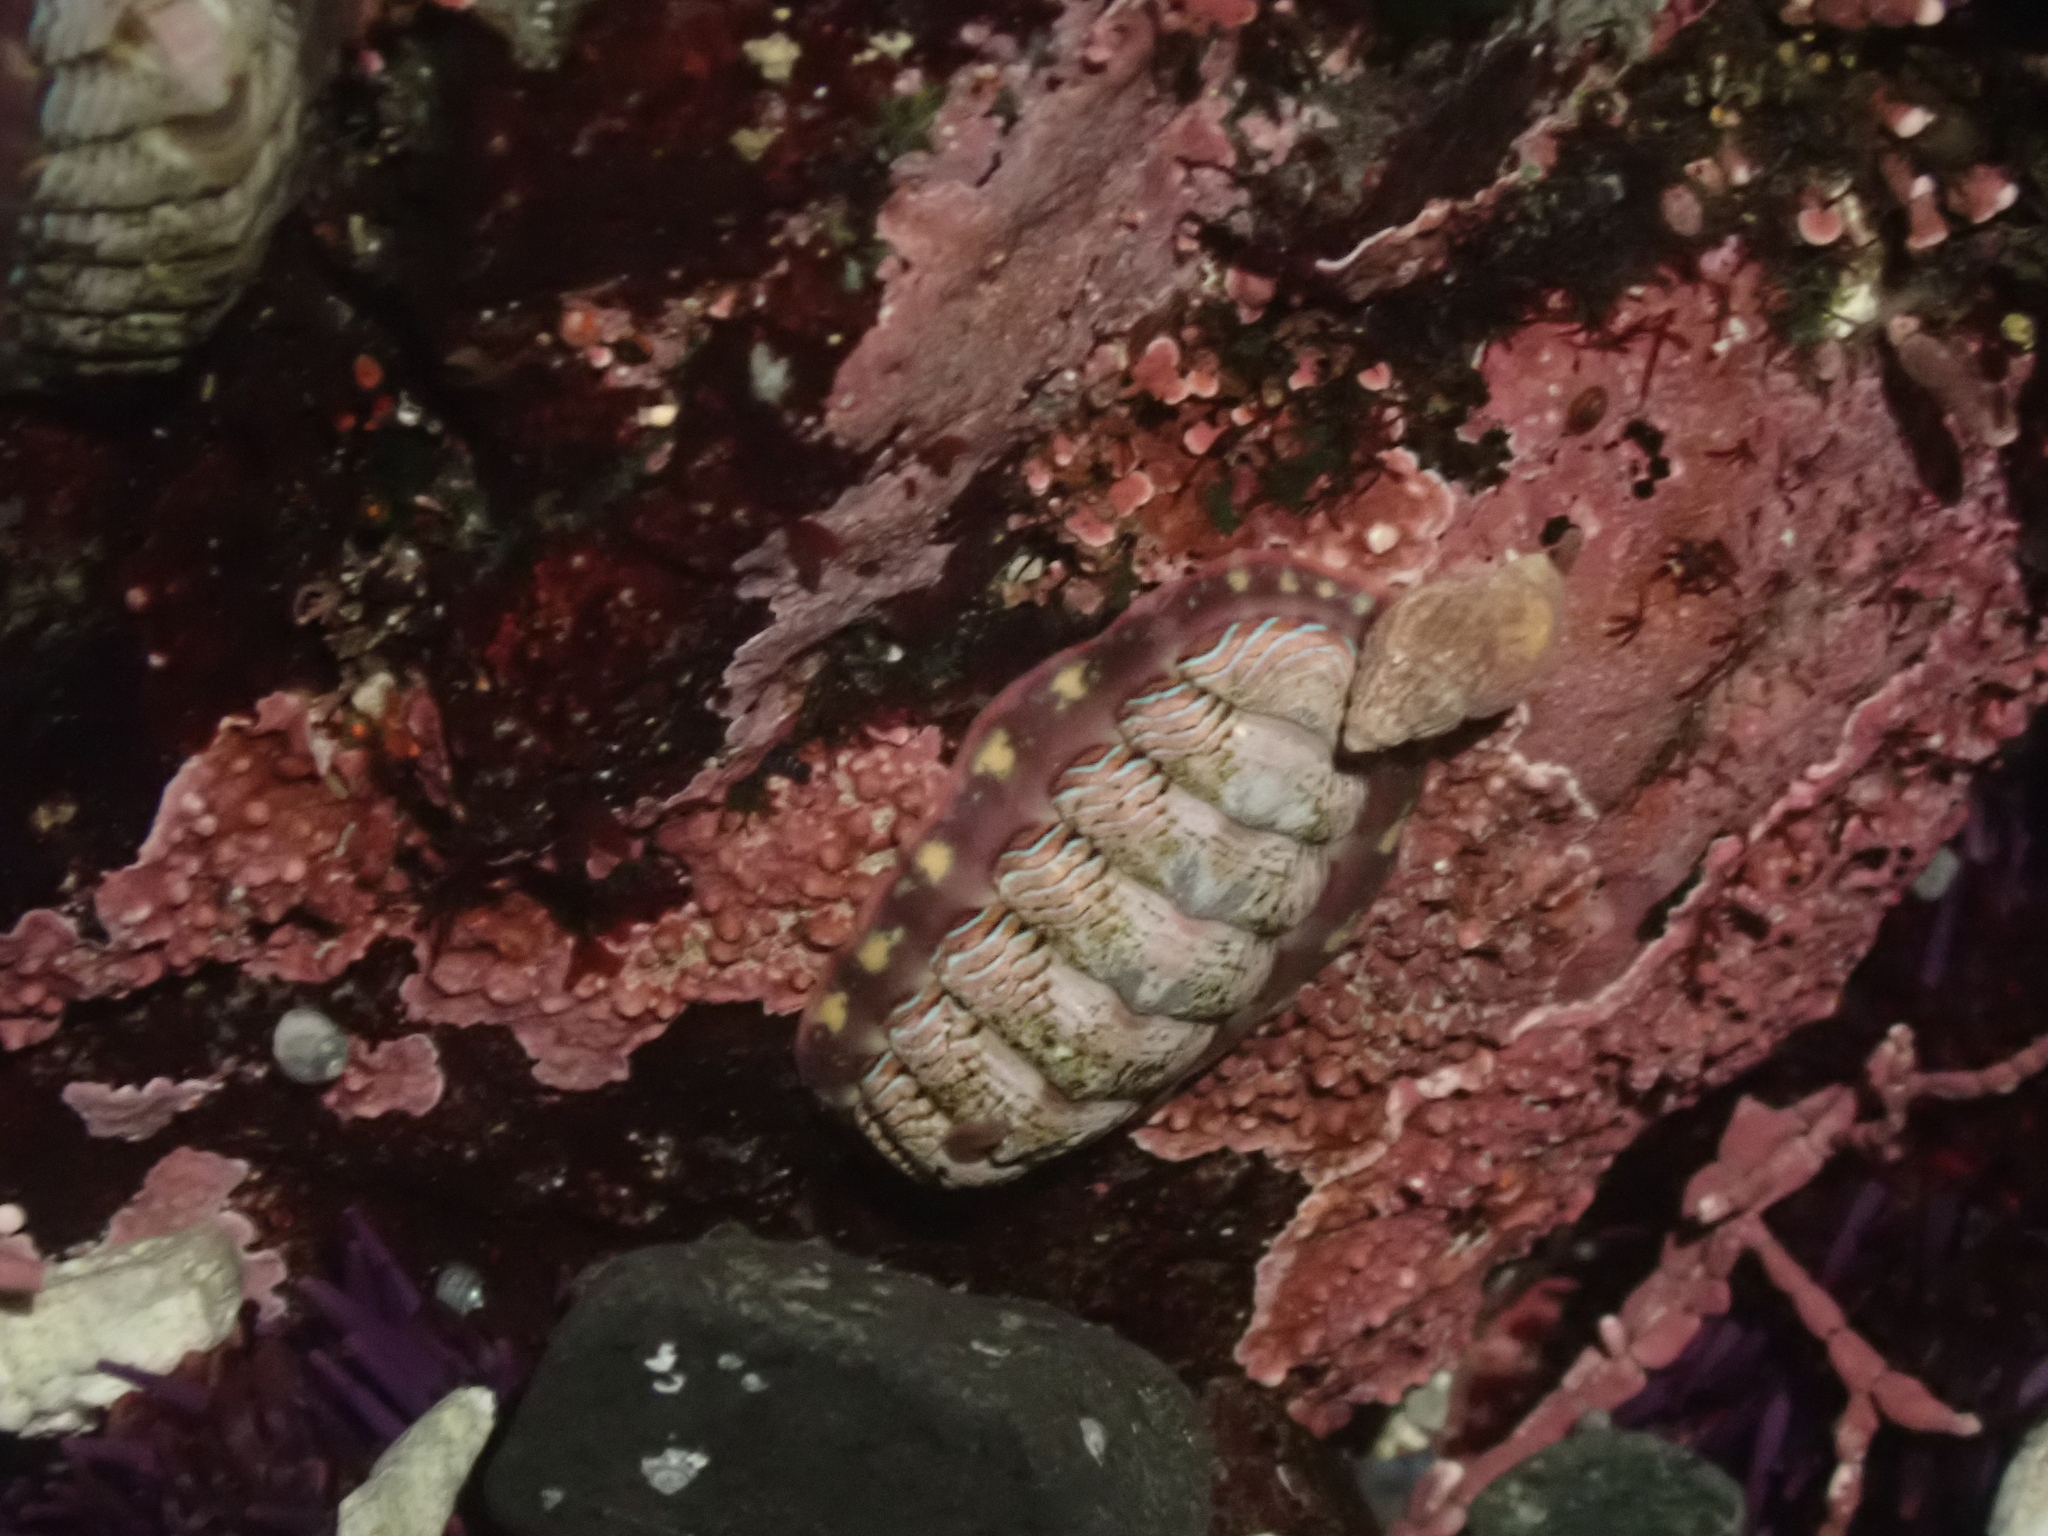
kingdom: Animalia
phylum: Mollusca
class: Polyplacophora
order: Chitonida
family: Tonicellidae
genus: Tonicella
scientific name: Tonicella lineata
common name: Lined chiton
